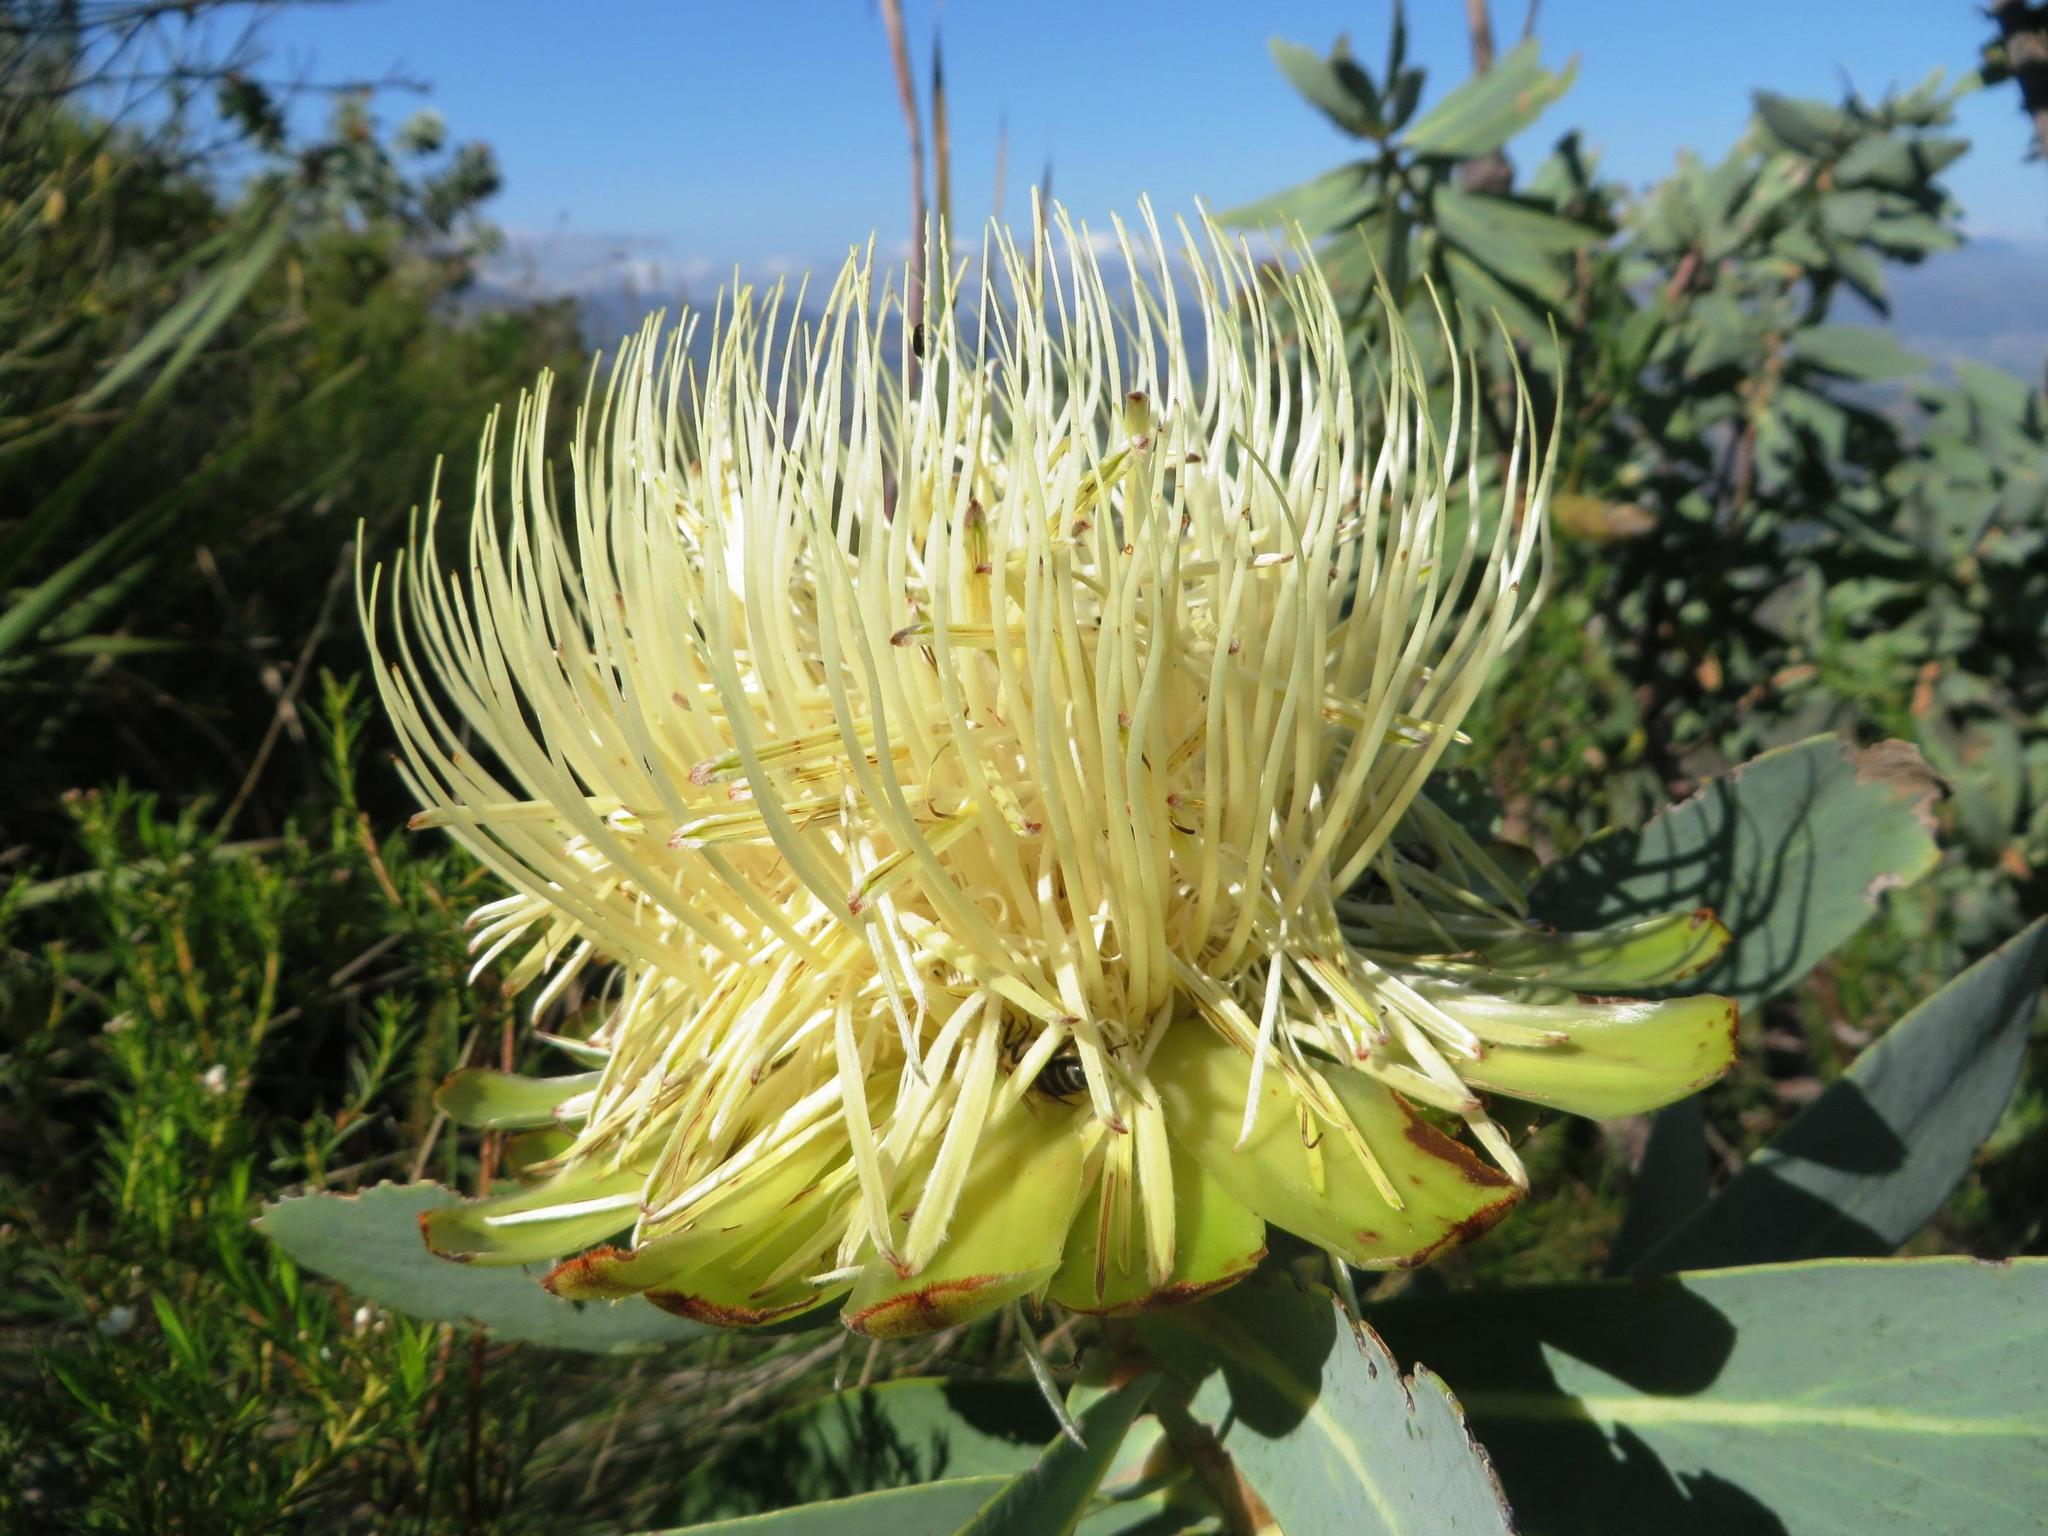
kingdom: Plantae
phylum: Tracheophyta
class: Magnoliopsida
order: Proteales
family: Proteaceae
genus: Protea
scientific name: Protea nitida
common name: Tree protea
